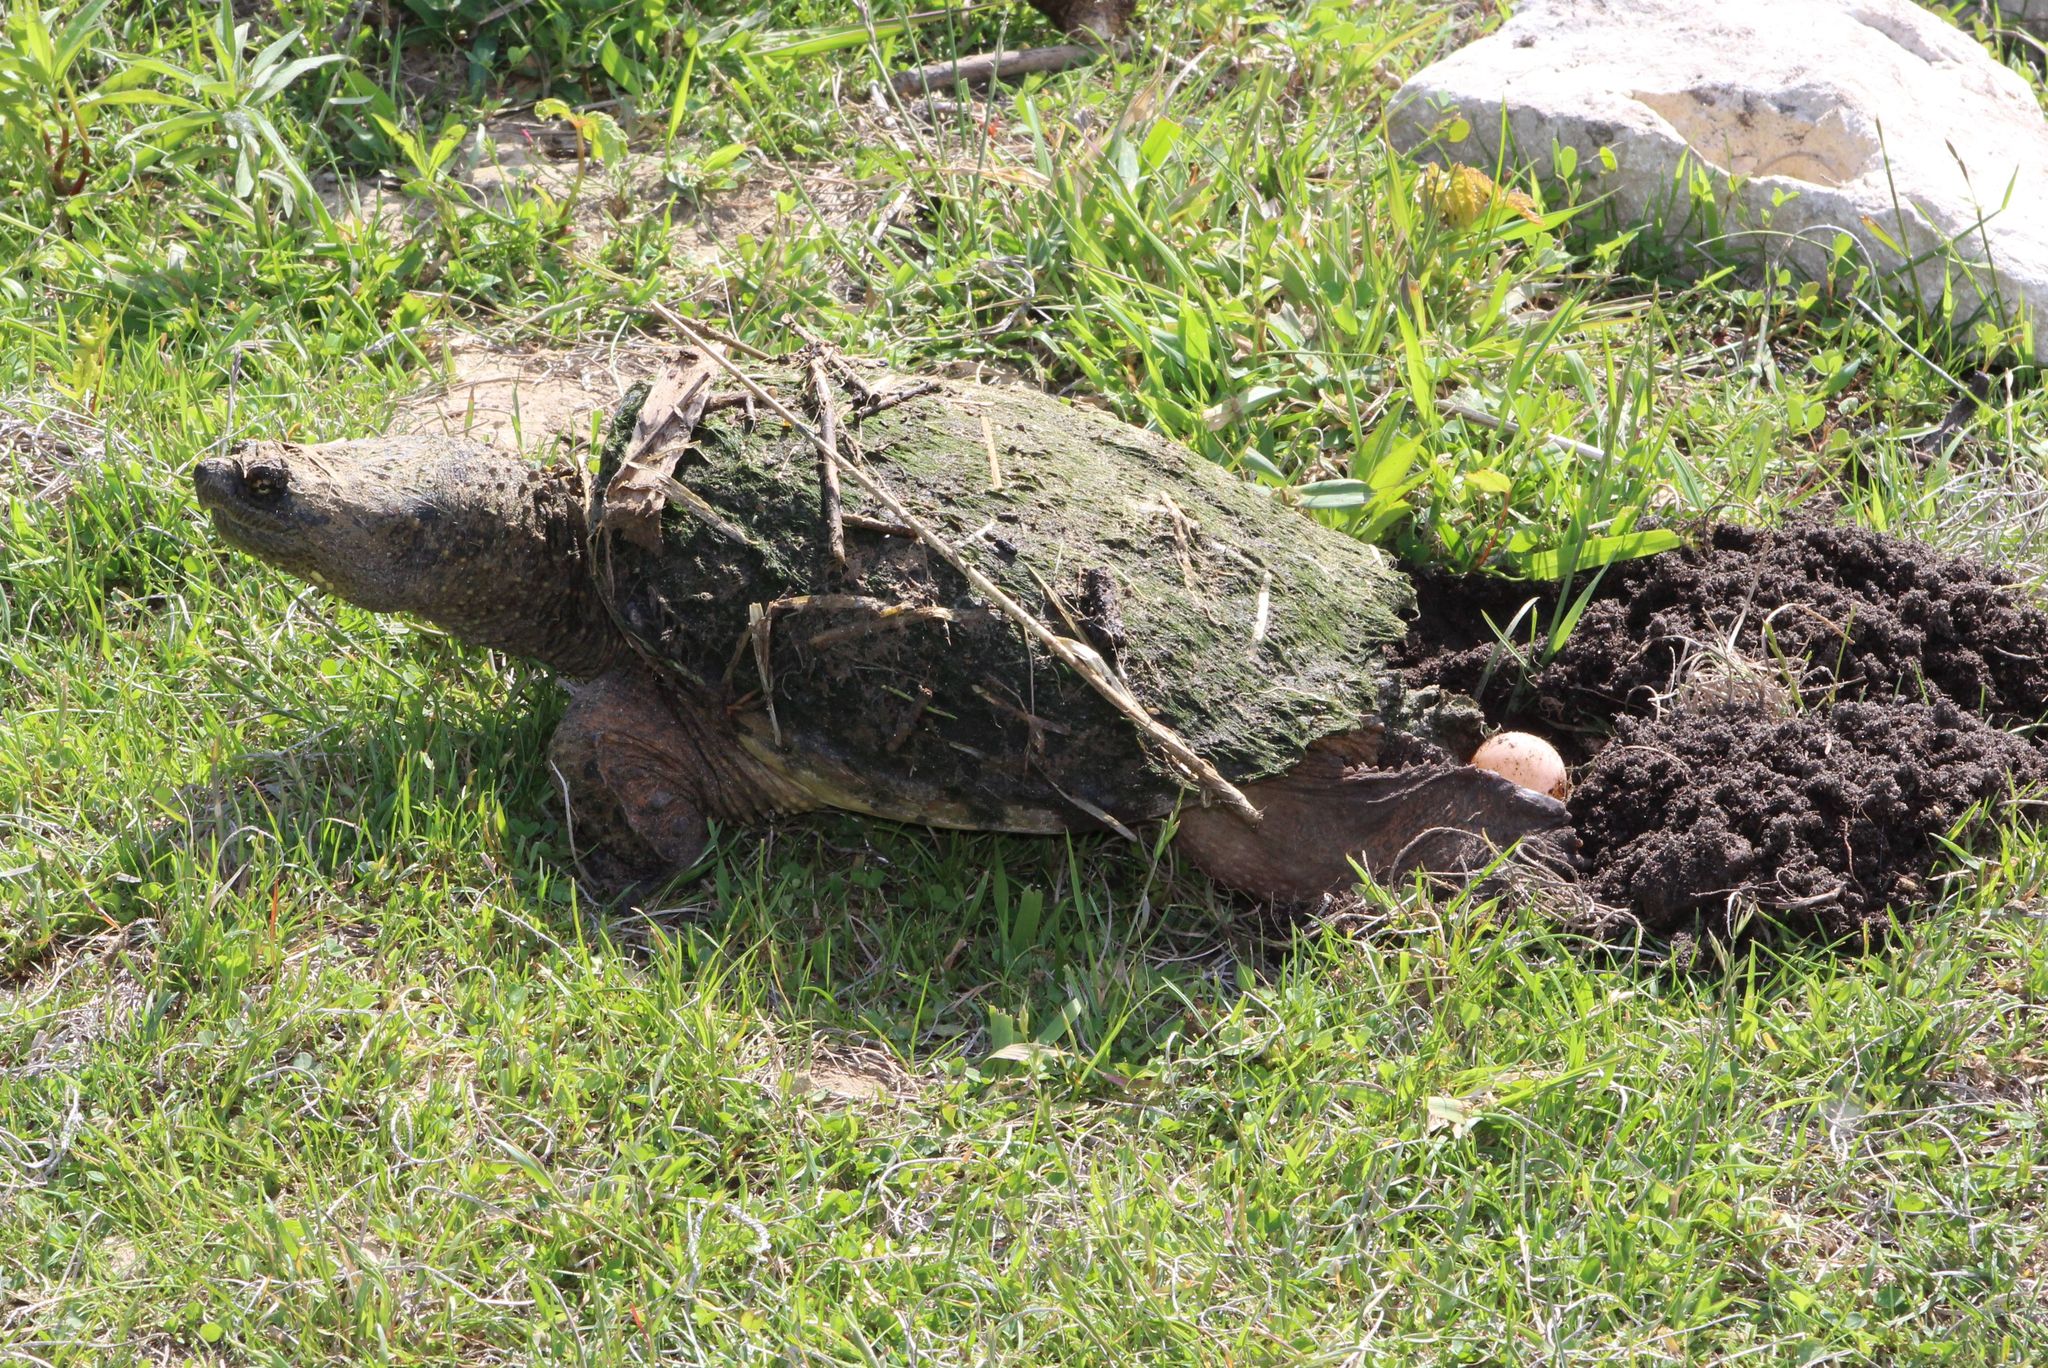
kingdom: Animalia
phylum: Chordata
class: Testudines
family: Chelydridae
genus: Chelydra
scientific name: Chelydra serpentina
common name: Common snapping turtle
